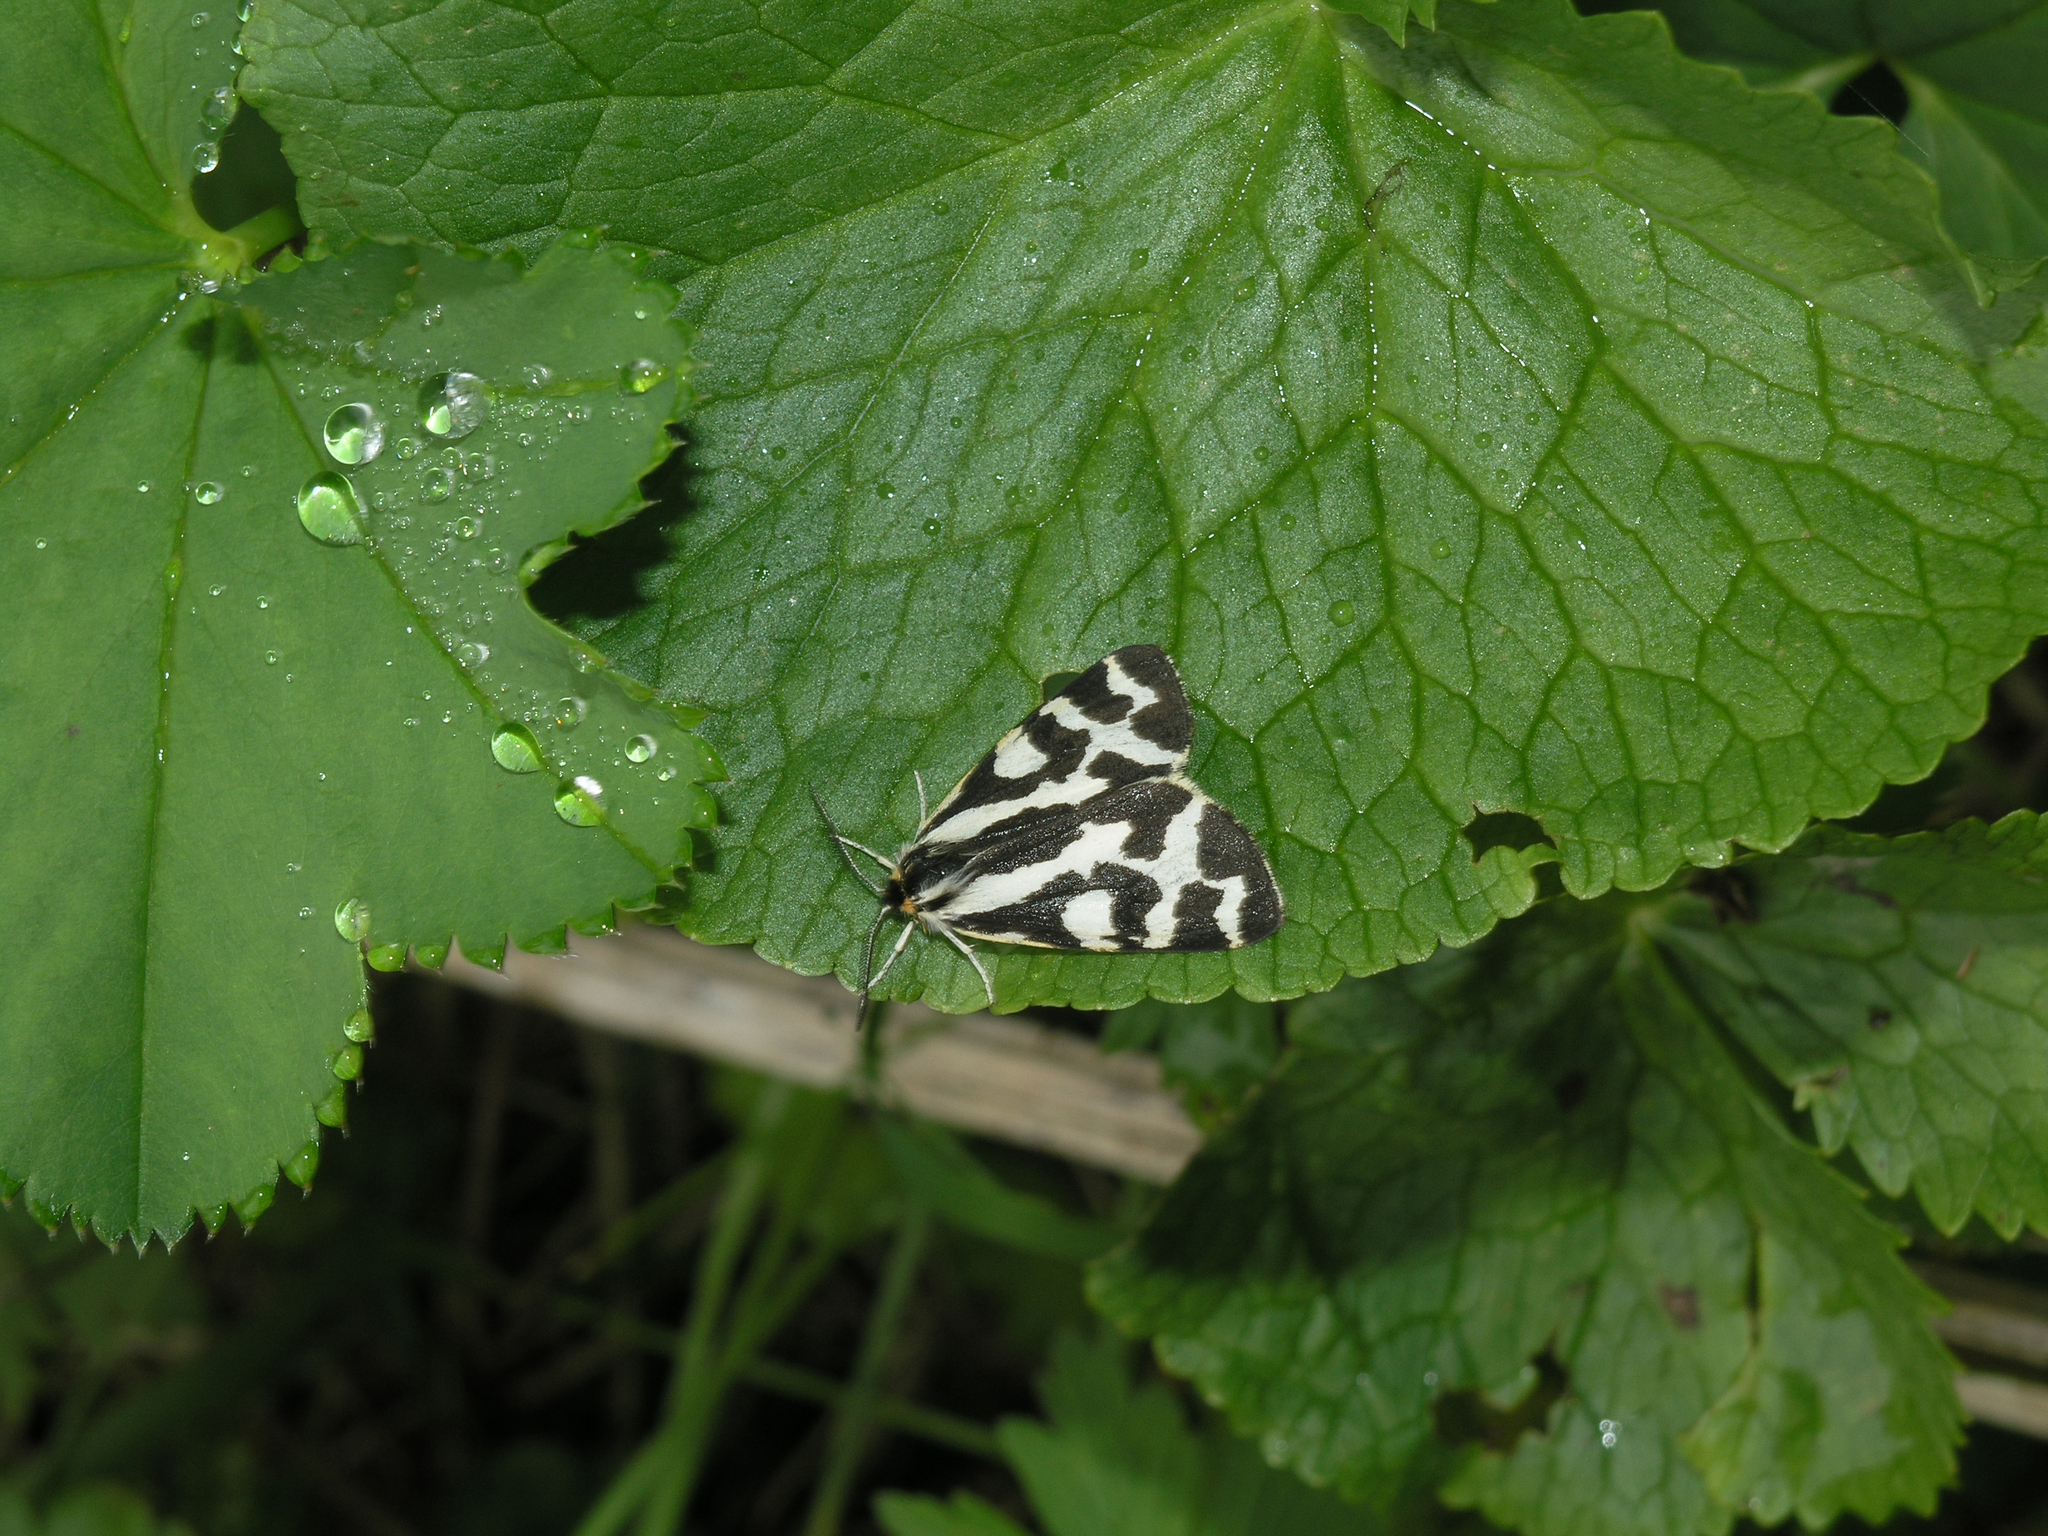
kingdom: Animalia
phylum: Arthropoda
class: Insecta
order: Lepidoptera
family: Erebidae
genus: Parasemia
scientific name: Parasemia plantaginis
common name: Wood tiger
